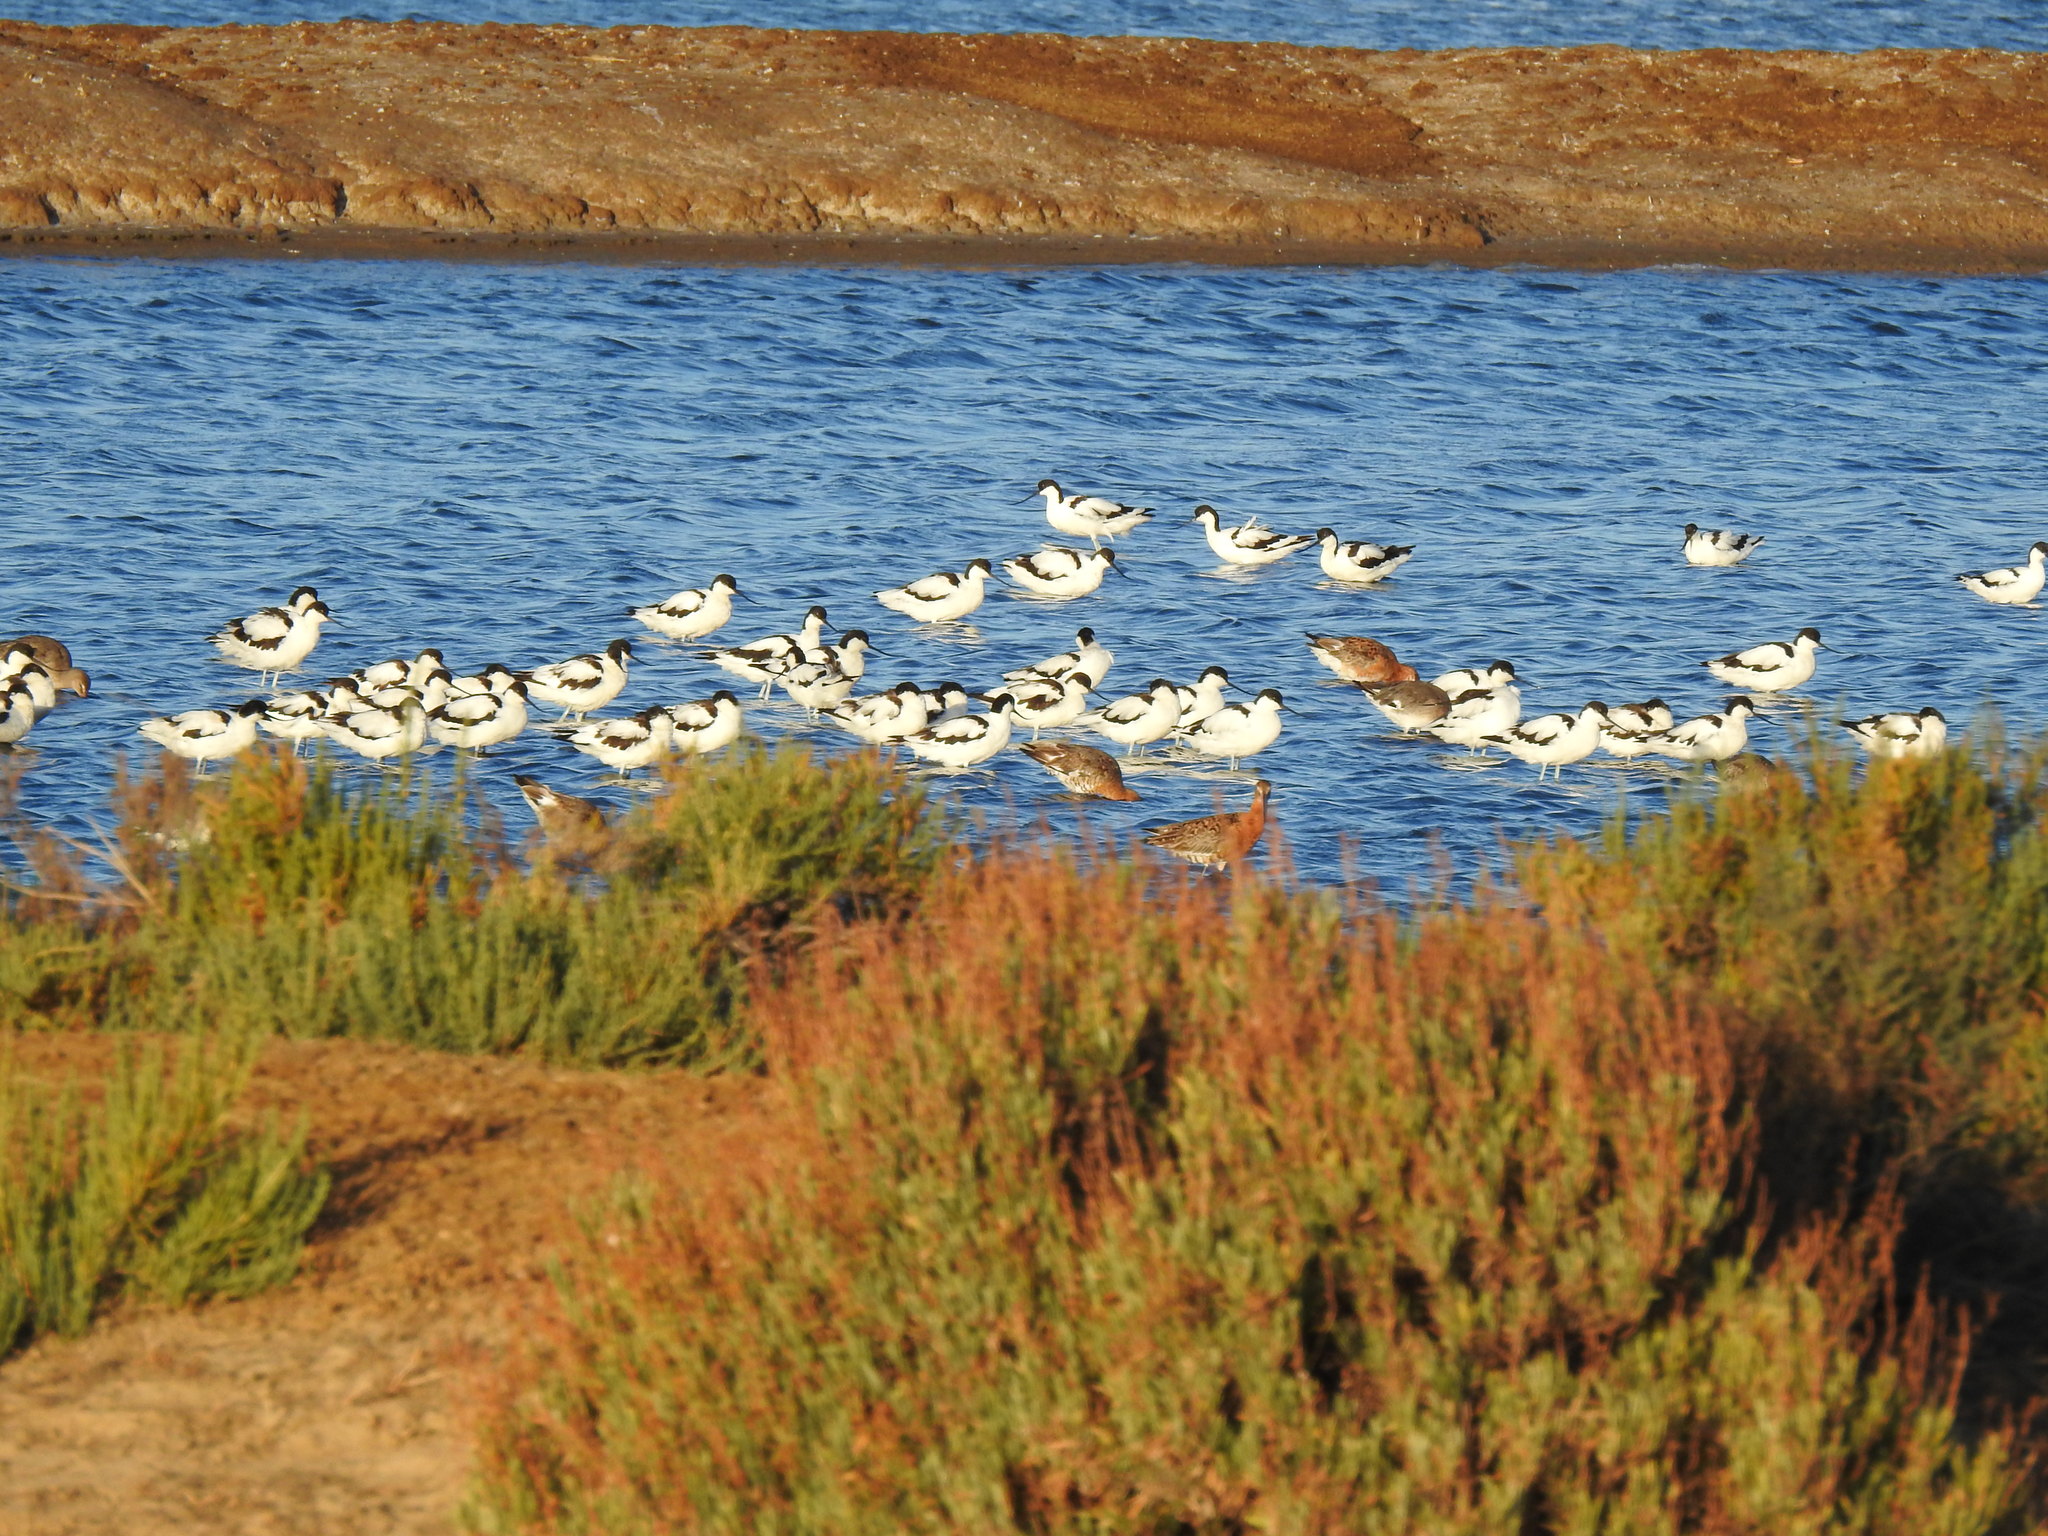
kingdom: Animalia
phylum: Chordata
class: Aves
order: Charadriiformes
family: Recurvirostridae
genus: Recurvirostra
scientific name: Recurvirostra avosetta
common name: Pied avocet
